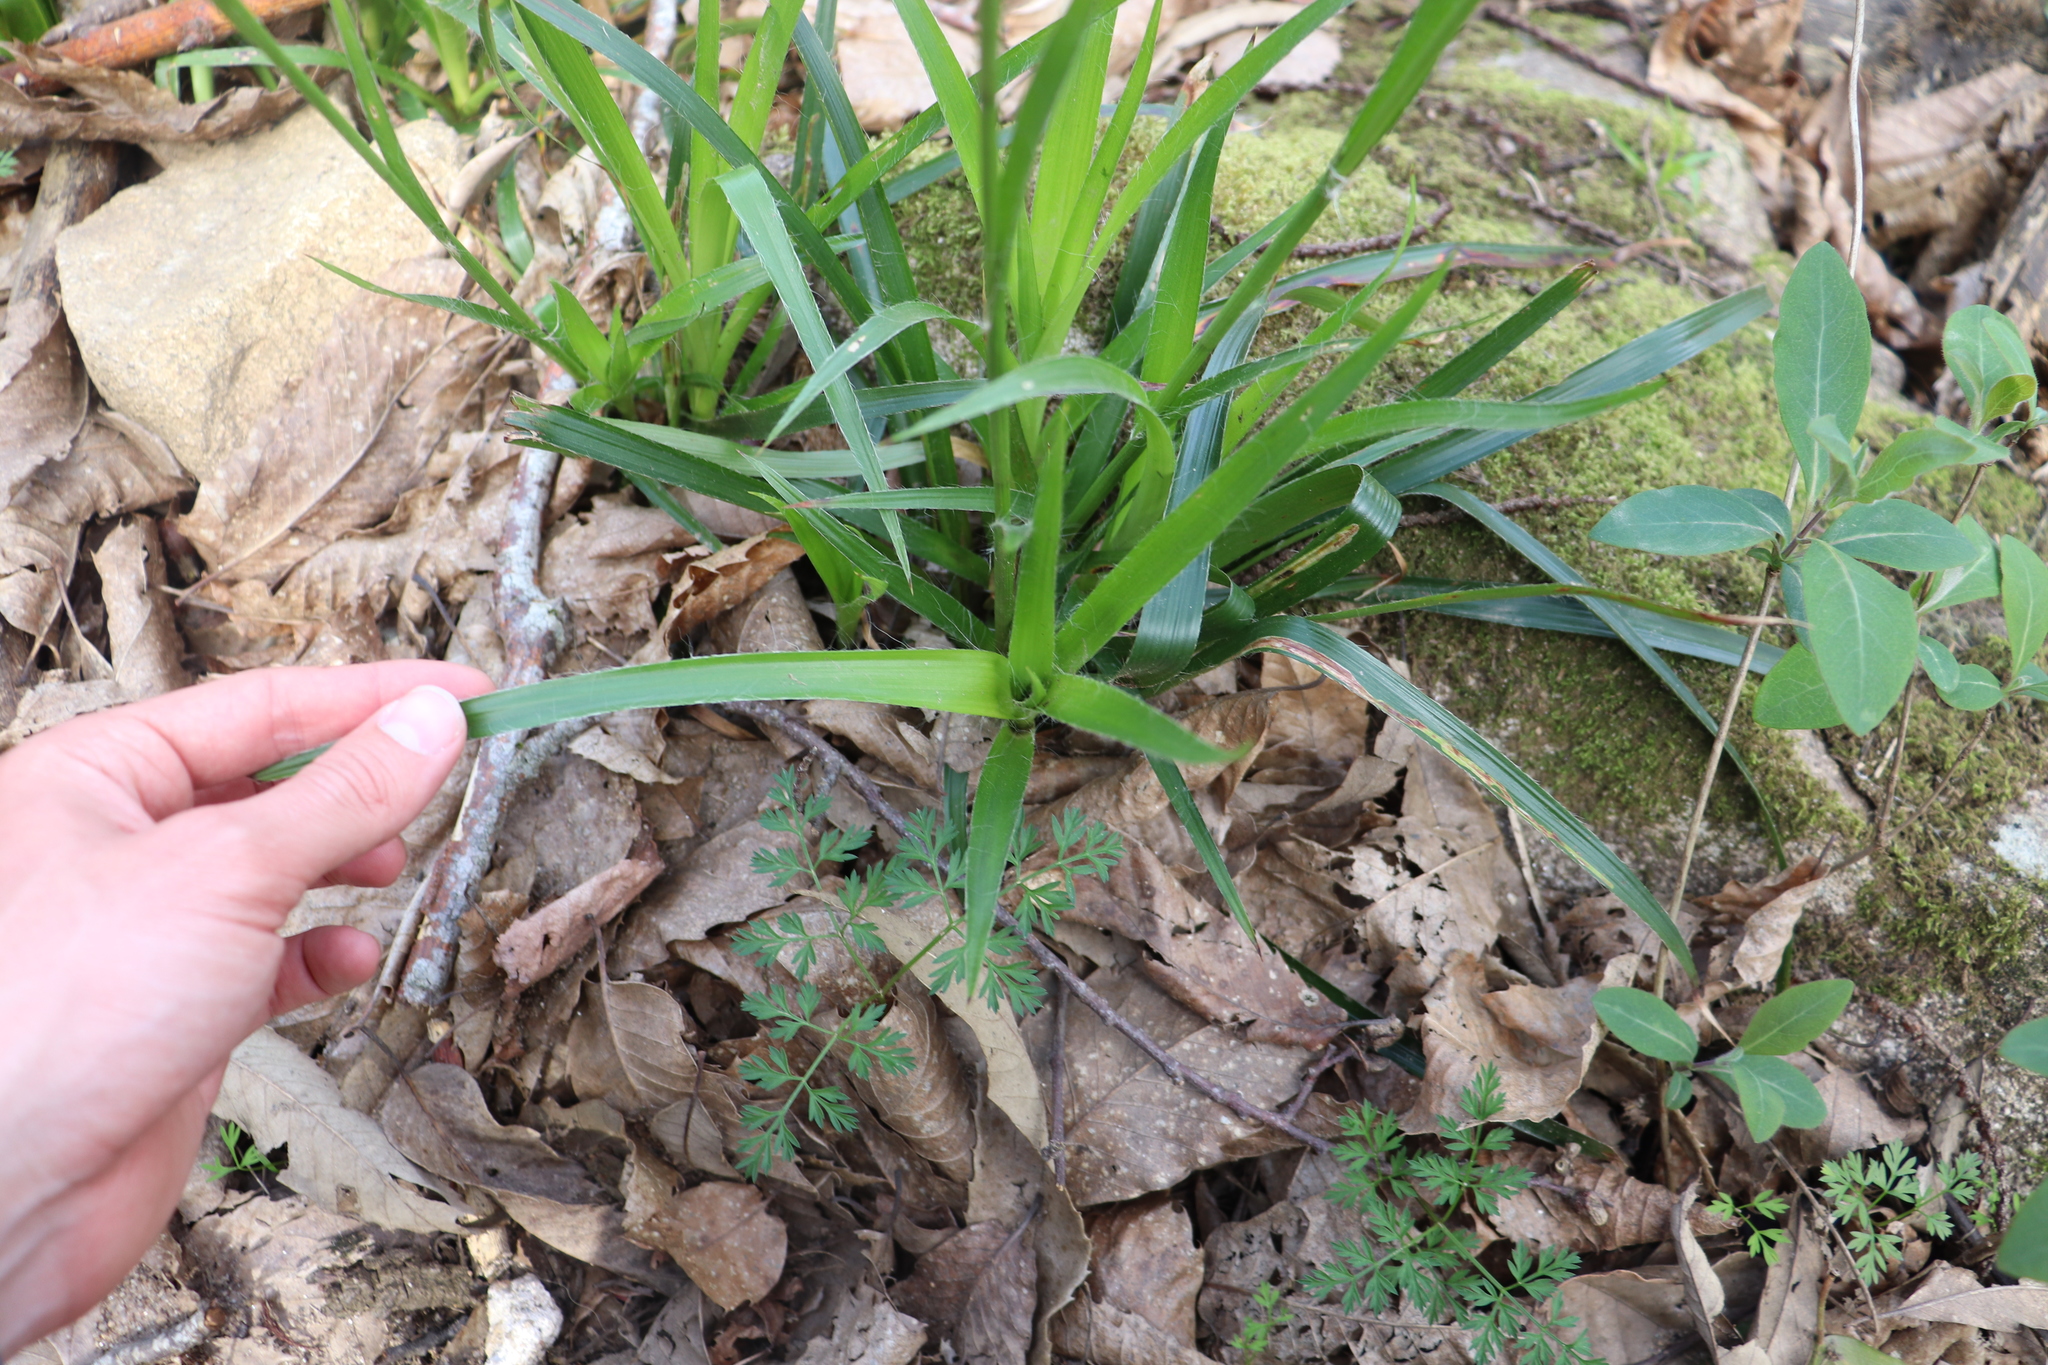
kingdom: Plantae
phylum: Tracheophyta
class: Liliopsida
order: Poales
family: Juncaceae
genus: Luzula
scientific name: Luzula sylvatica
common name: Great wood-rush
